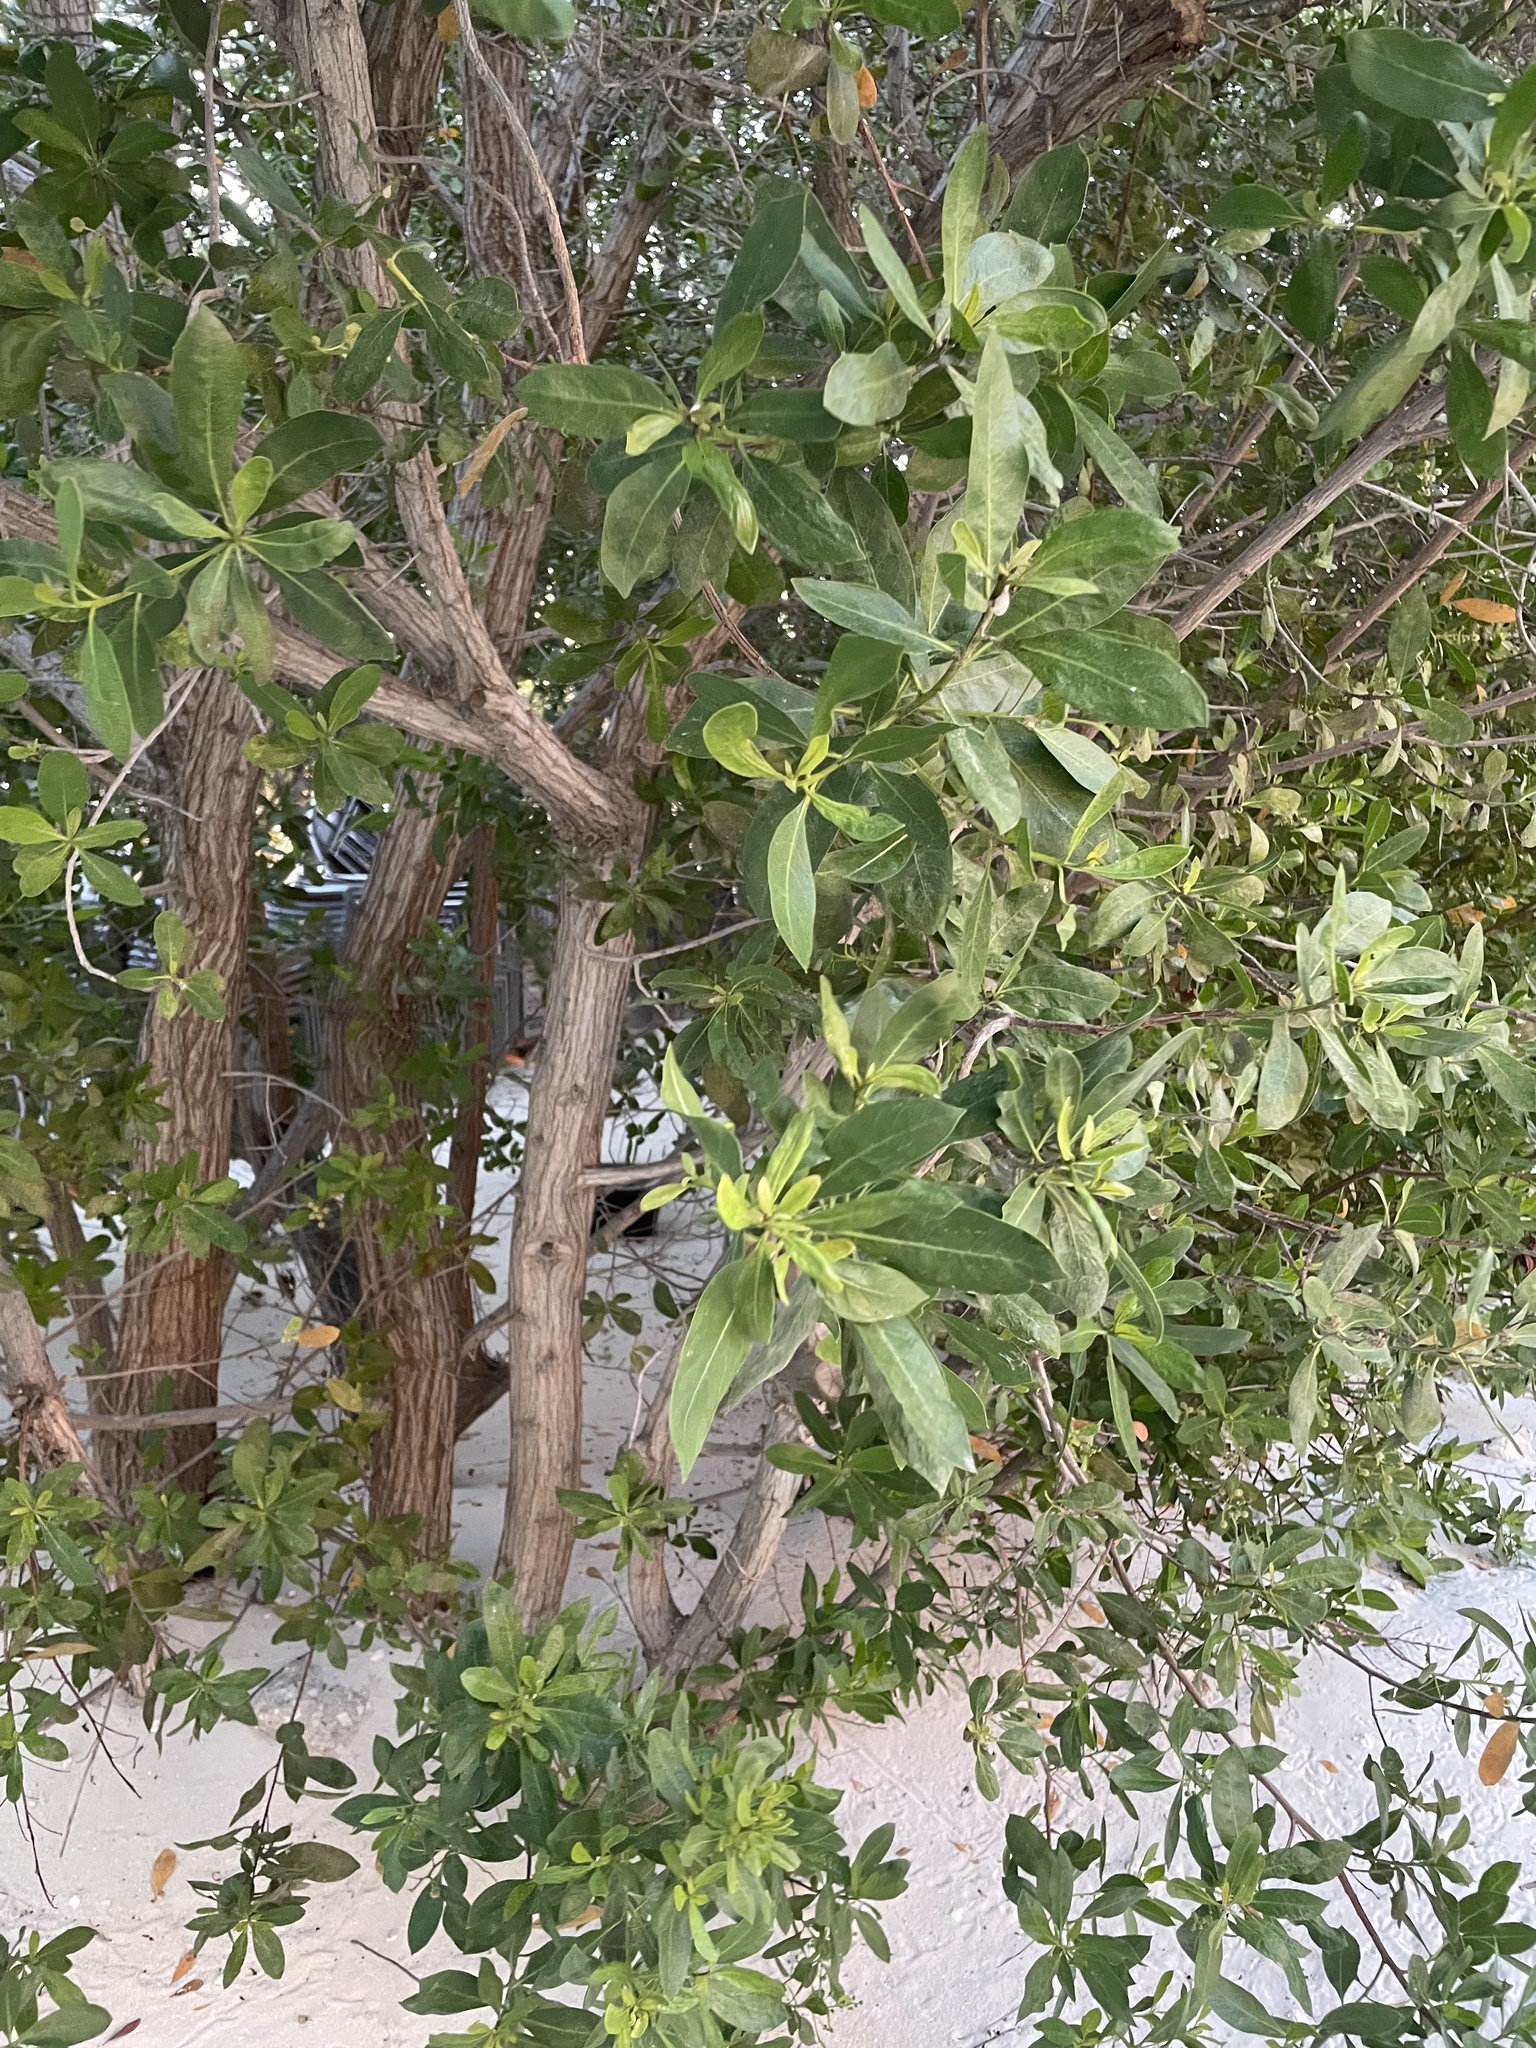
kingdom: Plantae
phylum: Tracheophyta
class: Magnoliopsida
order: Myrtales
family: Combretaceae
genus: Conocarpus
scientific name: Conocarpus erectus
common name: Button mangrove
